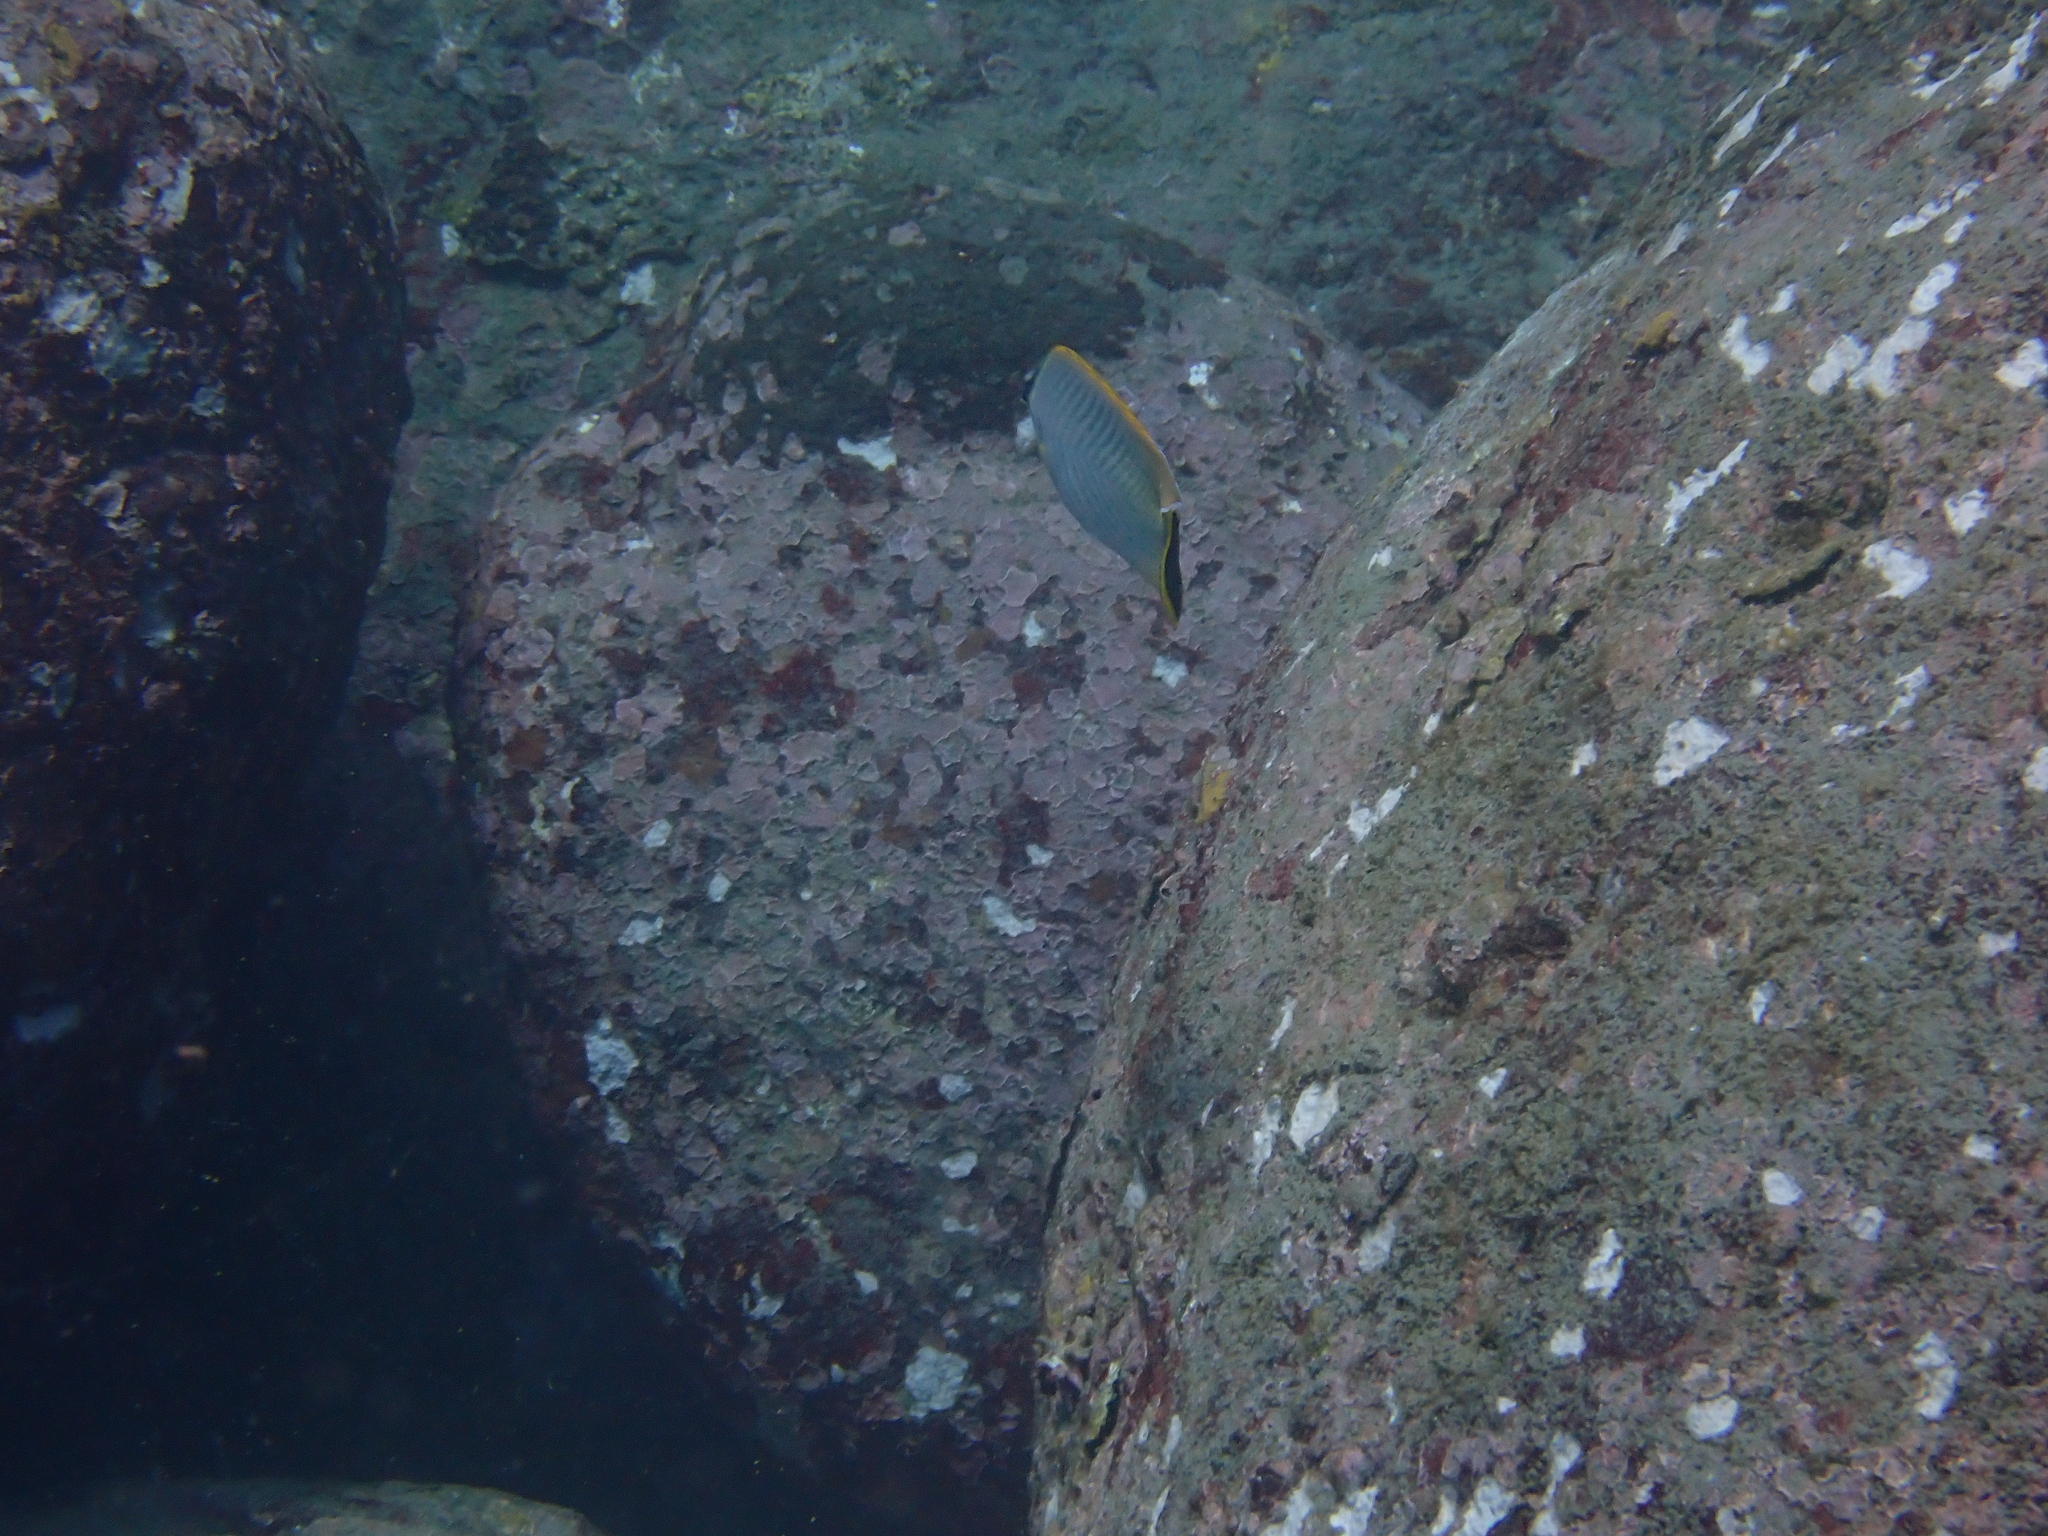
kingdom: Animalia
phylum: Chordata
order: Perciformes
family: Chaetodontidae
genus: Chaetodon
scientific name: Chaetodon trifascialis
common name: Chevroned butterflyfish
